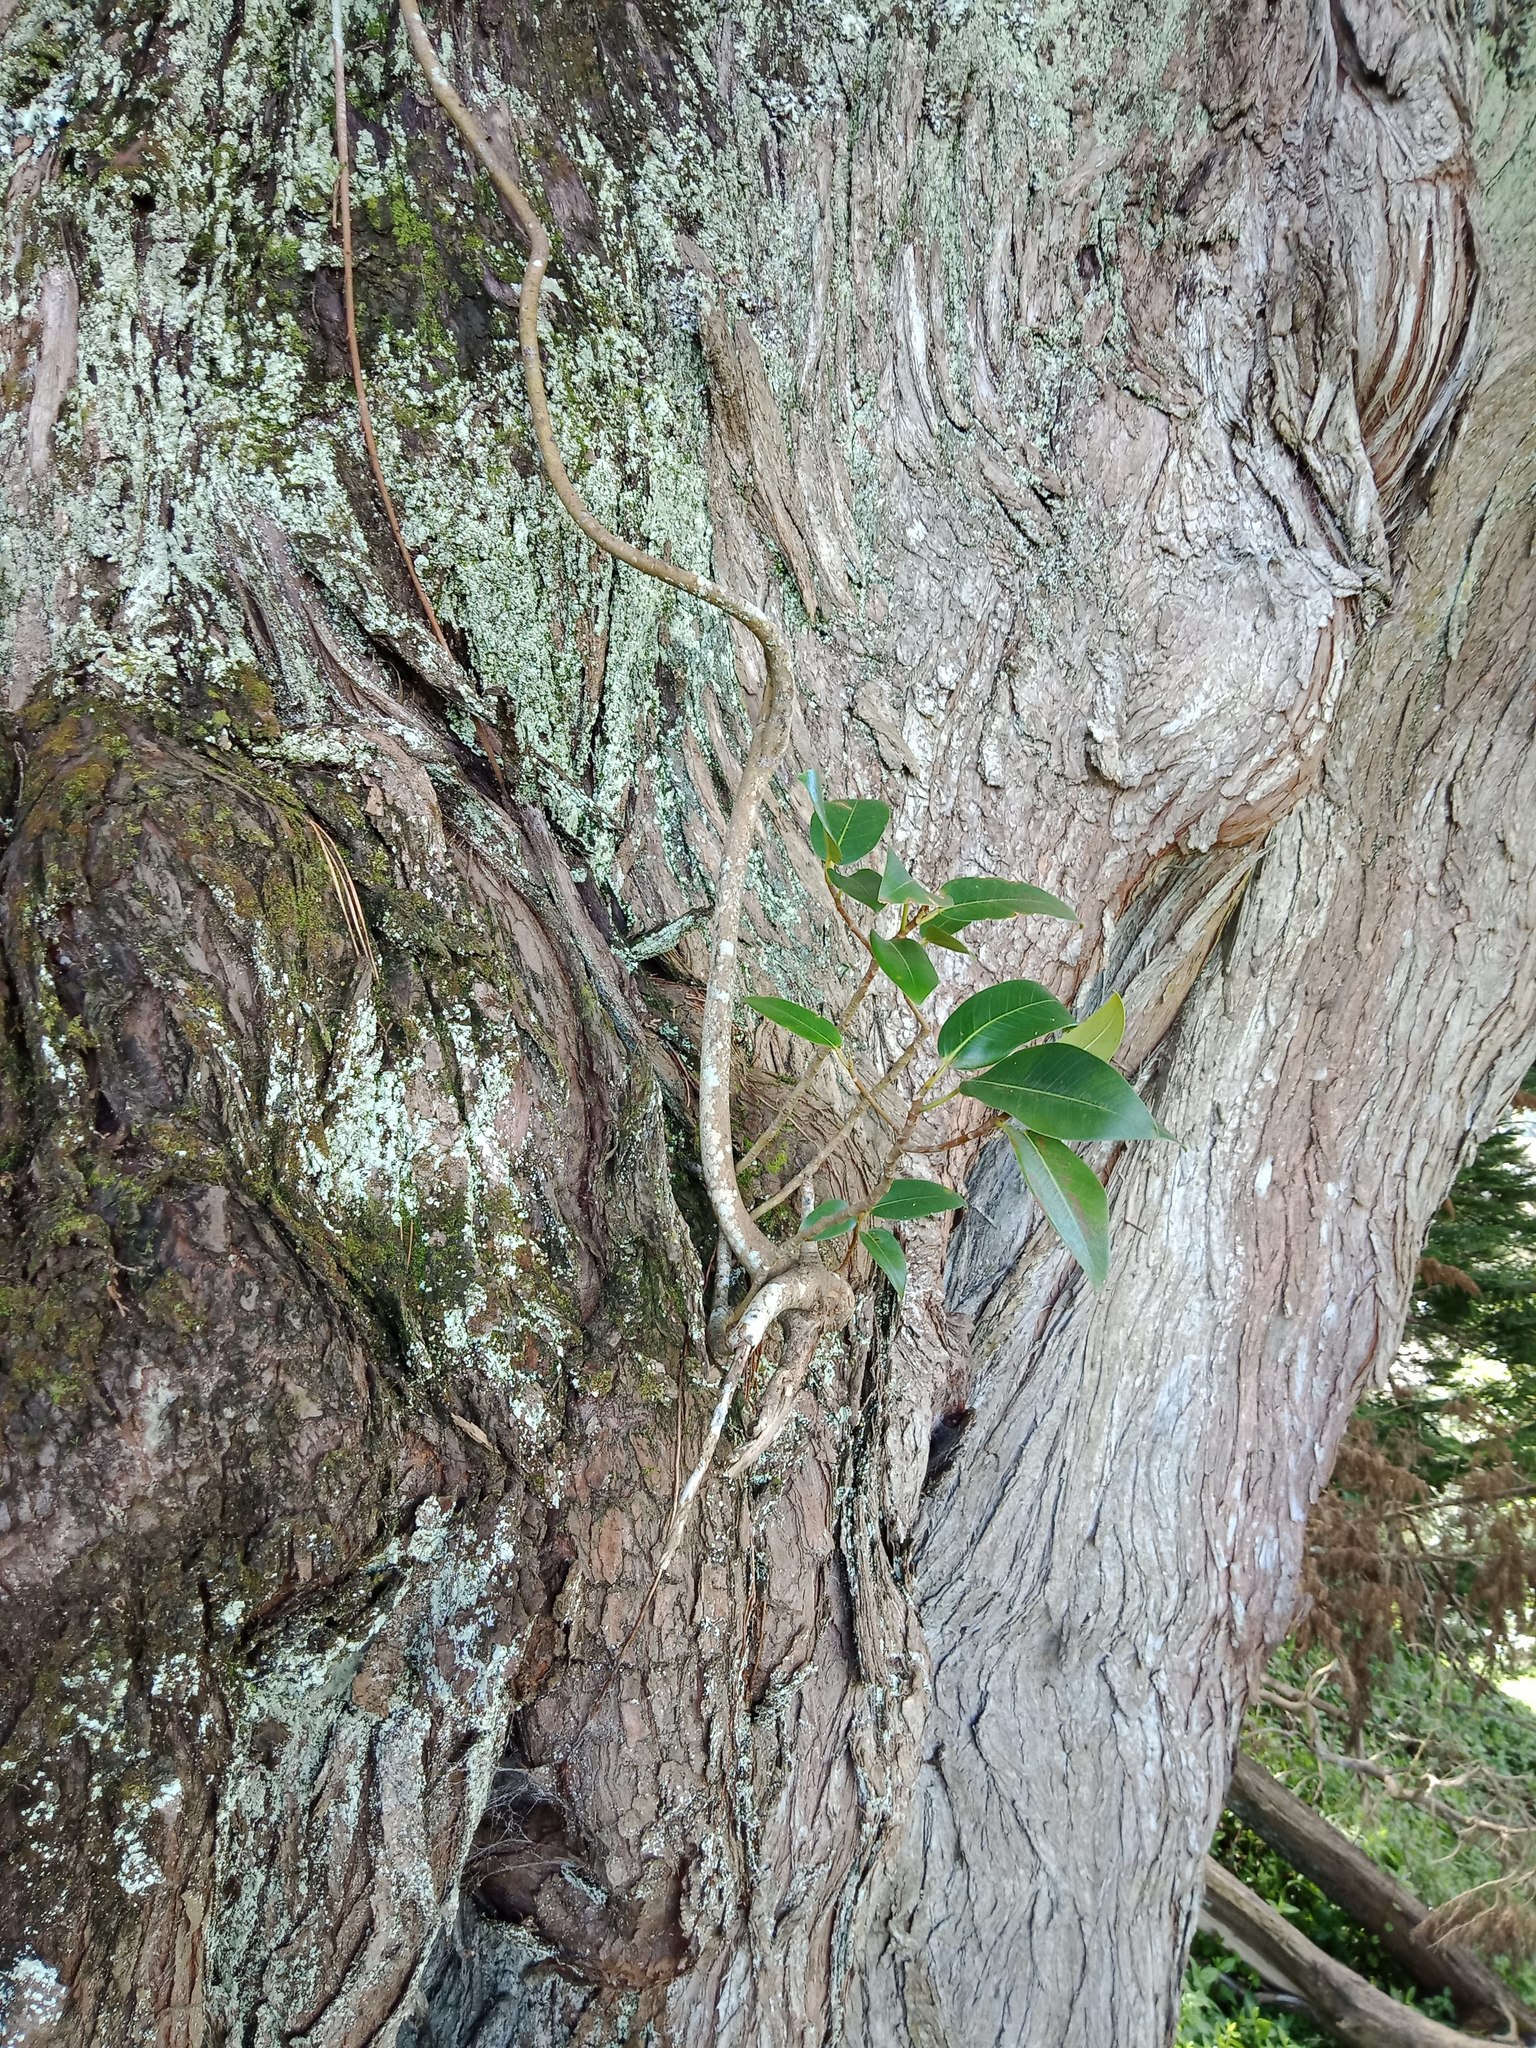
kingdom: Plantae
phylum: Tracheophyta
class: Magnoliopsida
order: Rosales
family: Moraceae
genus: Ficus
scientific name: Ficus macrophylla
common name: Moreton bay fig
